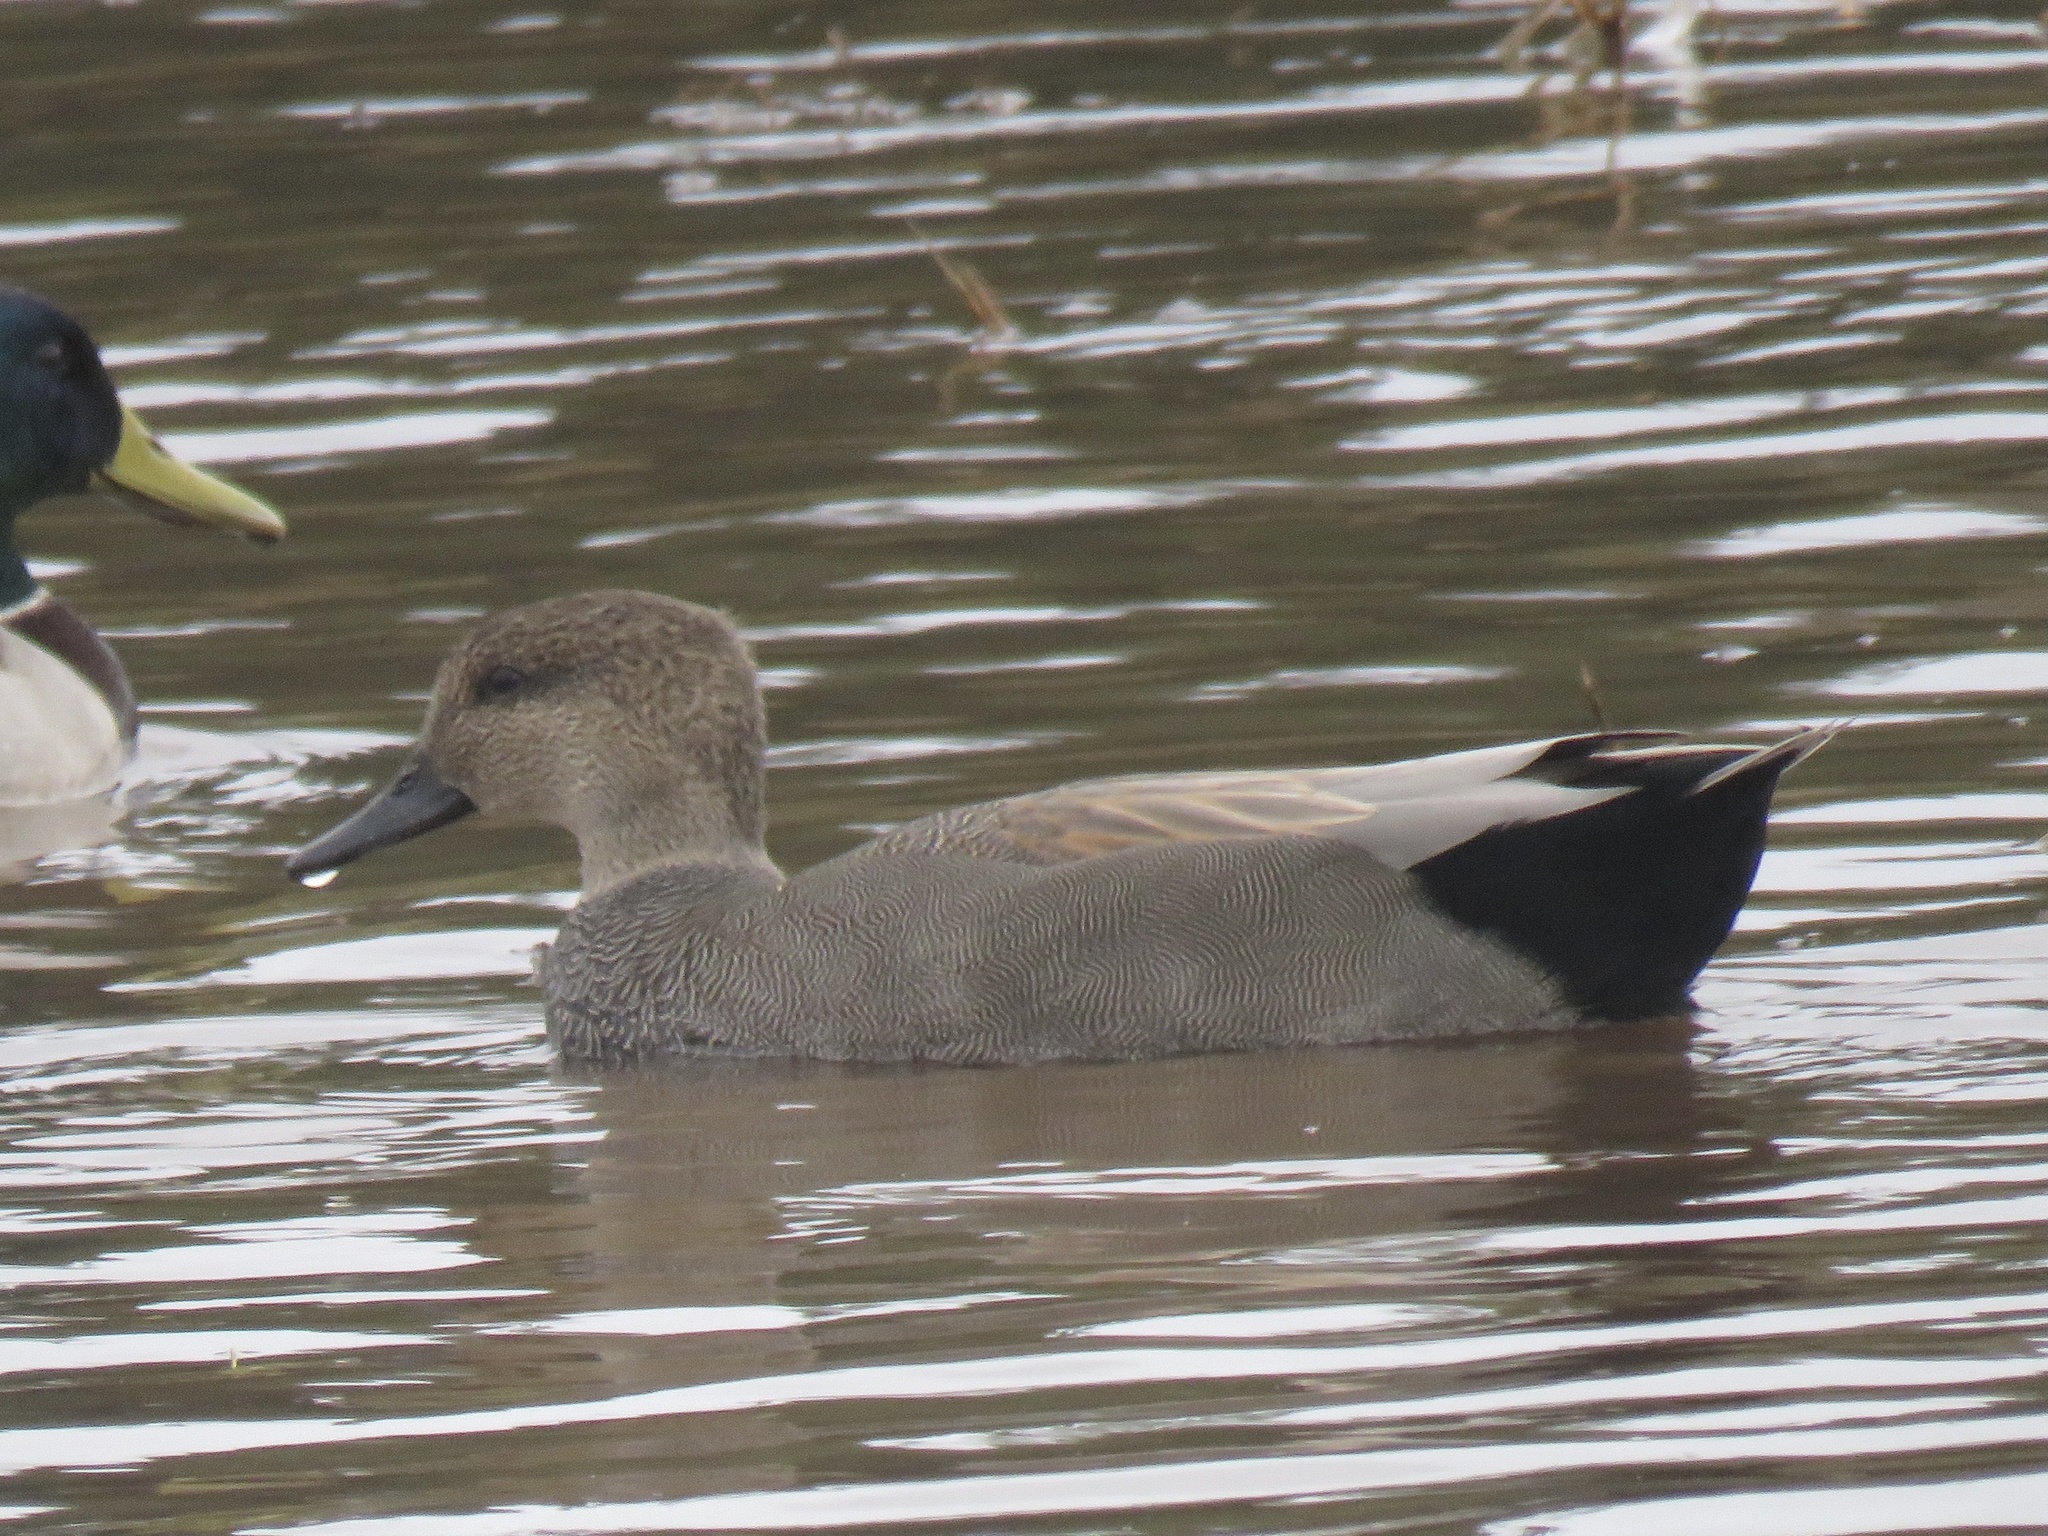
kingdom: Animalia
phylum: Chordata
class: Aves
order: Anseriformes
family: Anatidae
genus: Mareca
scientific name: Mareca strepera
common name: Gadwall
